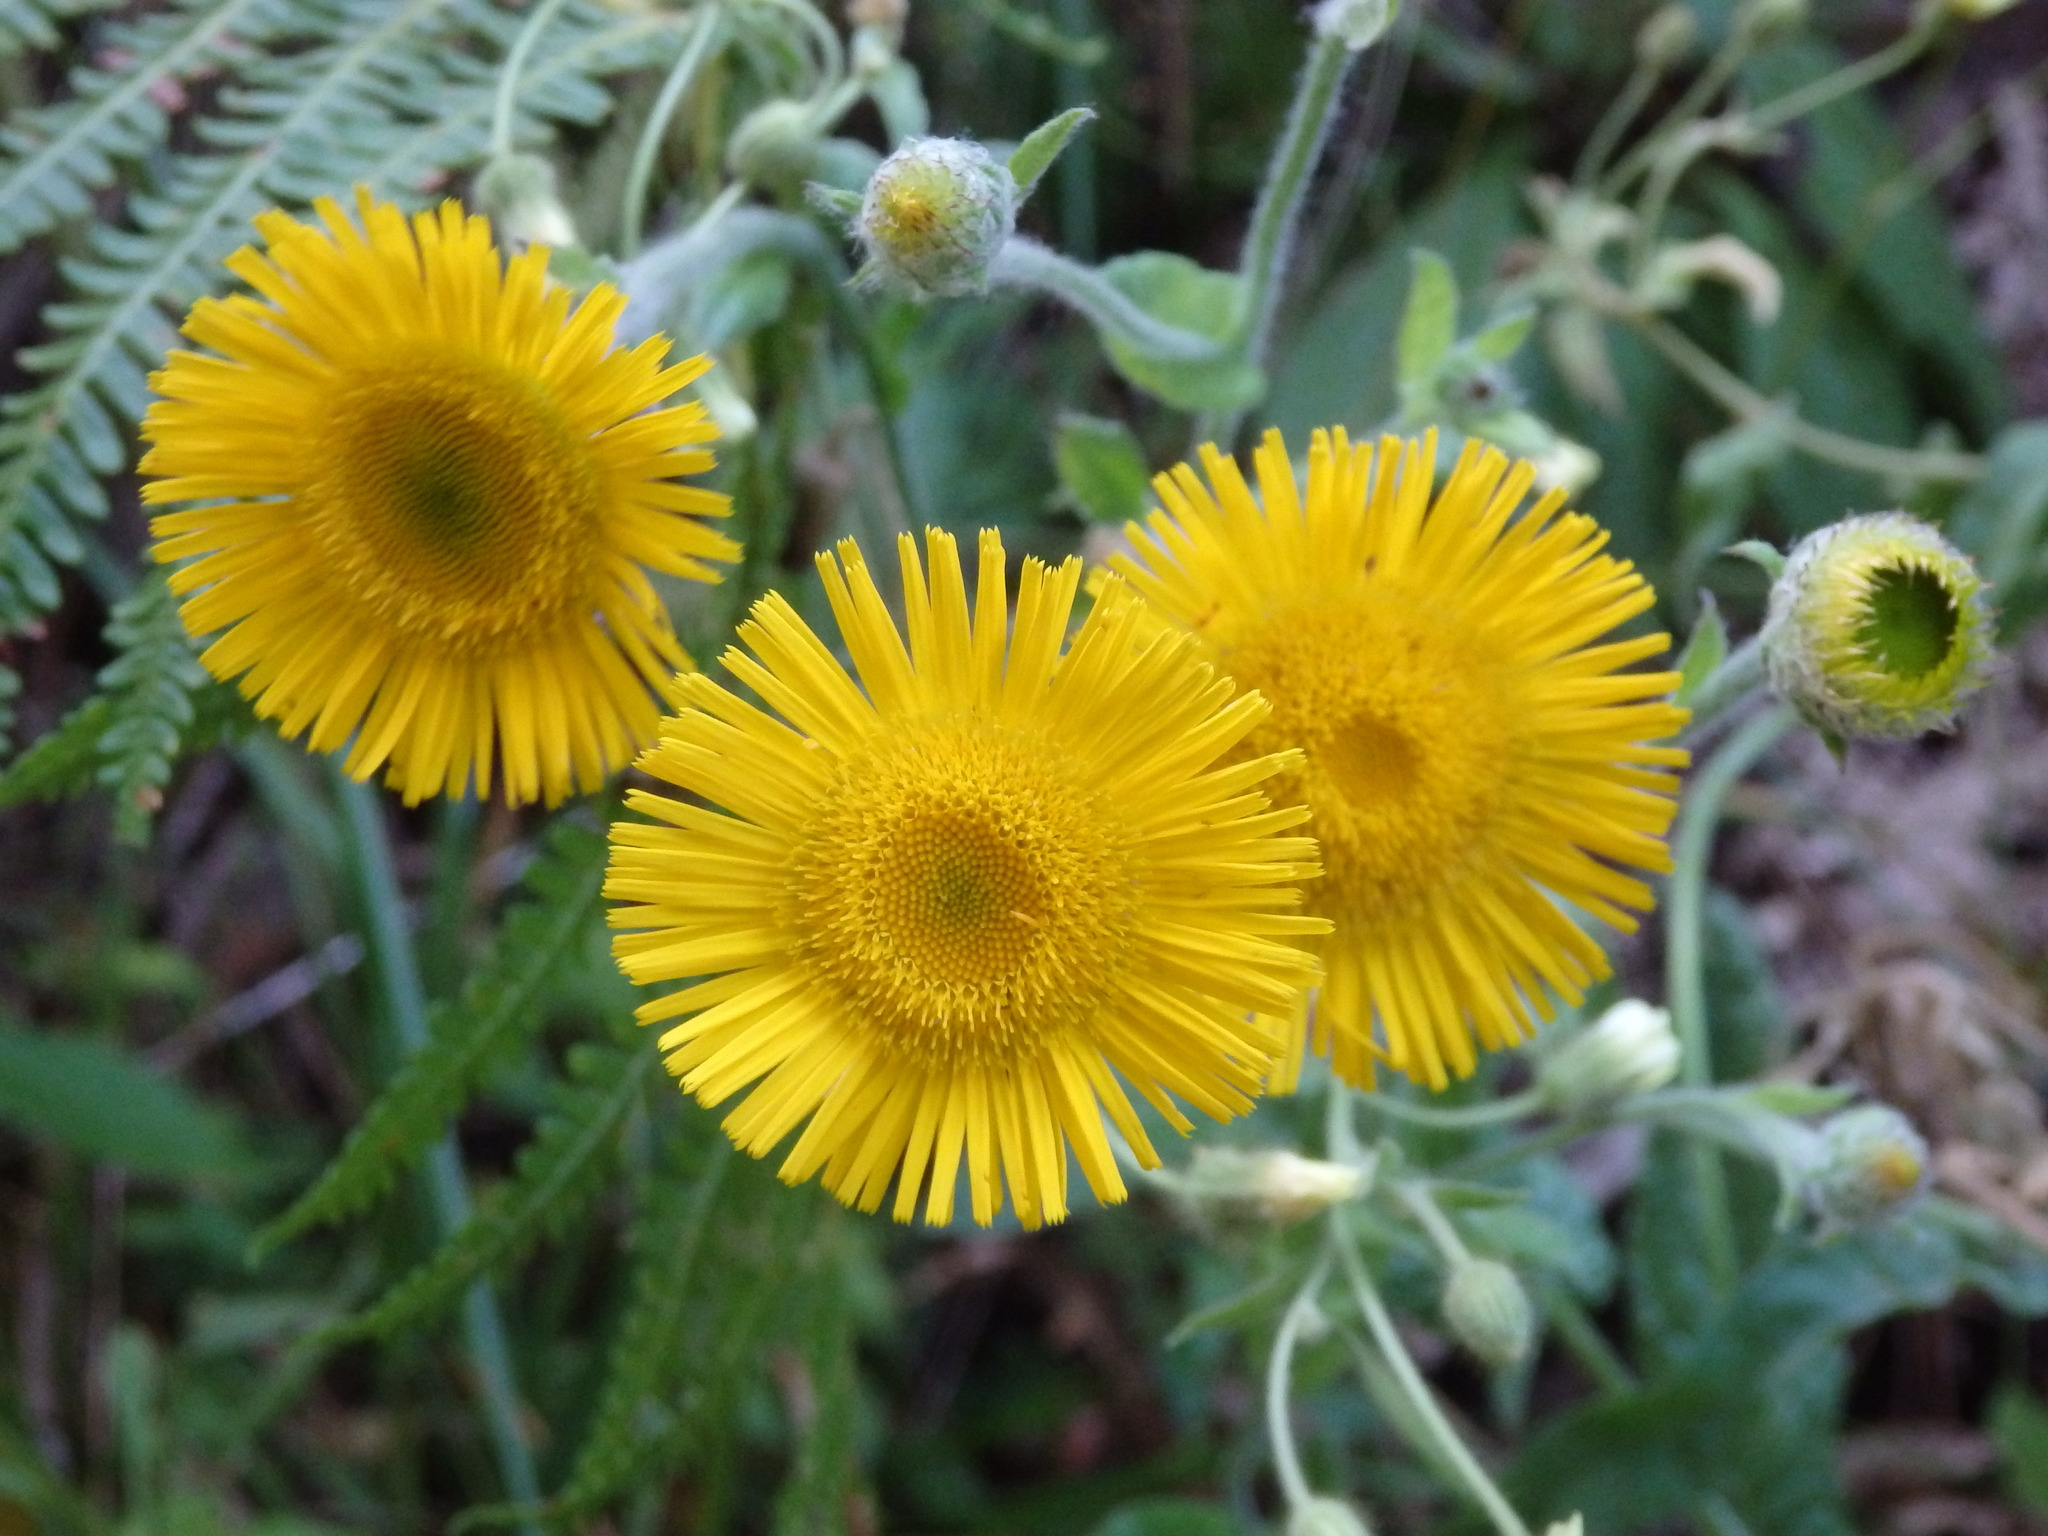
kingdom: Plantae
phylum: Tracheophyta
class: Magnoliopsida
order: Asterales
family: Asteraceae
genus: Pulicaria
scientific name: Pulicaria odora
